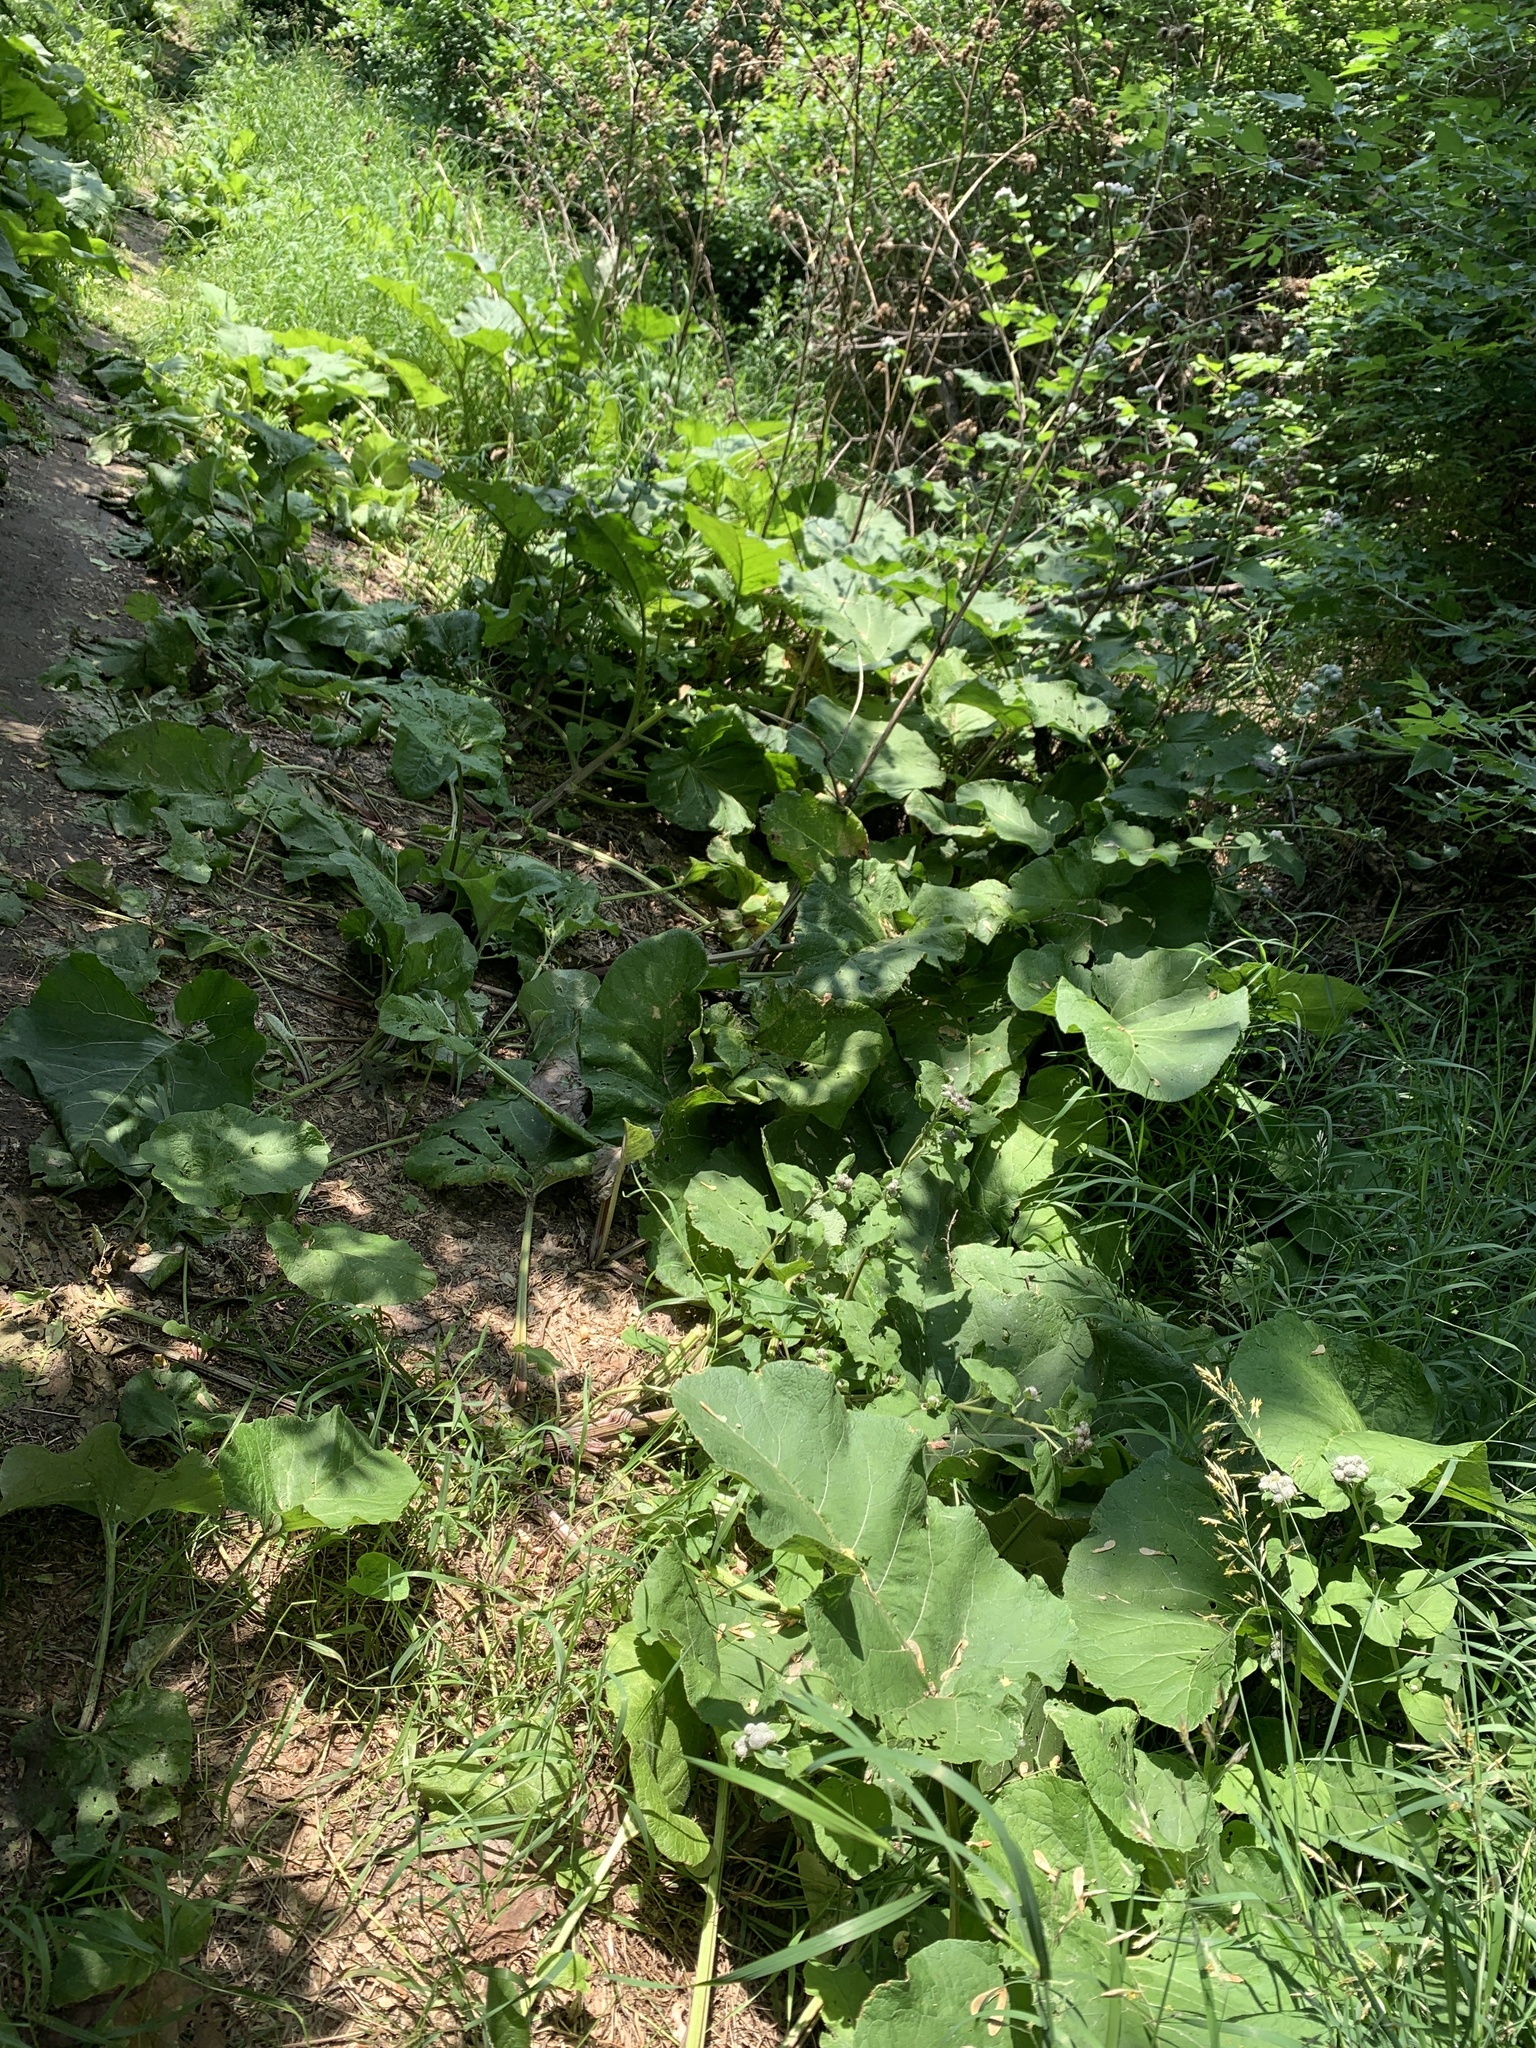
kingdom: Plantae
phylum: Tracheophyta
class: Magnoliopsida
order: Asterales
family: Asteraceae
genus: Arctium
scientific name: Arctium tomentosum
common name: Woolly burdock
